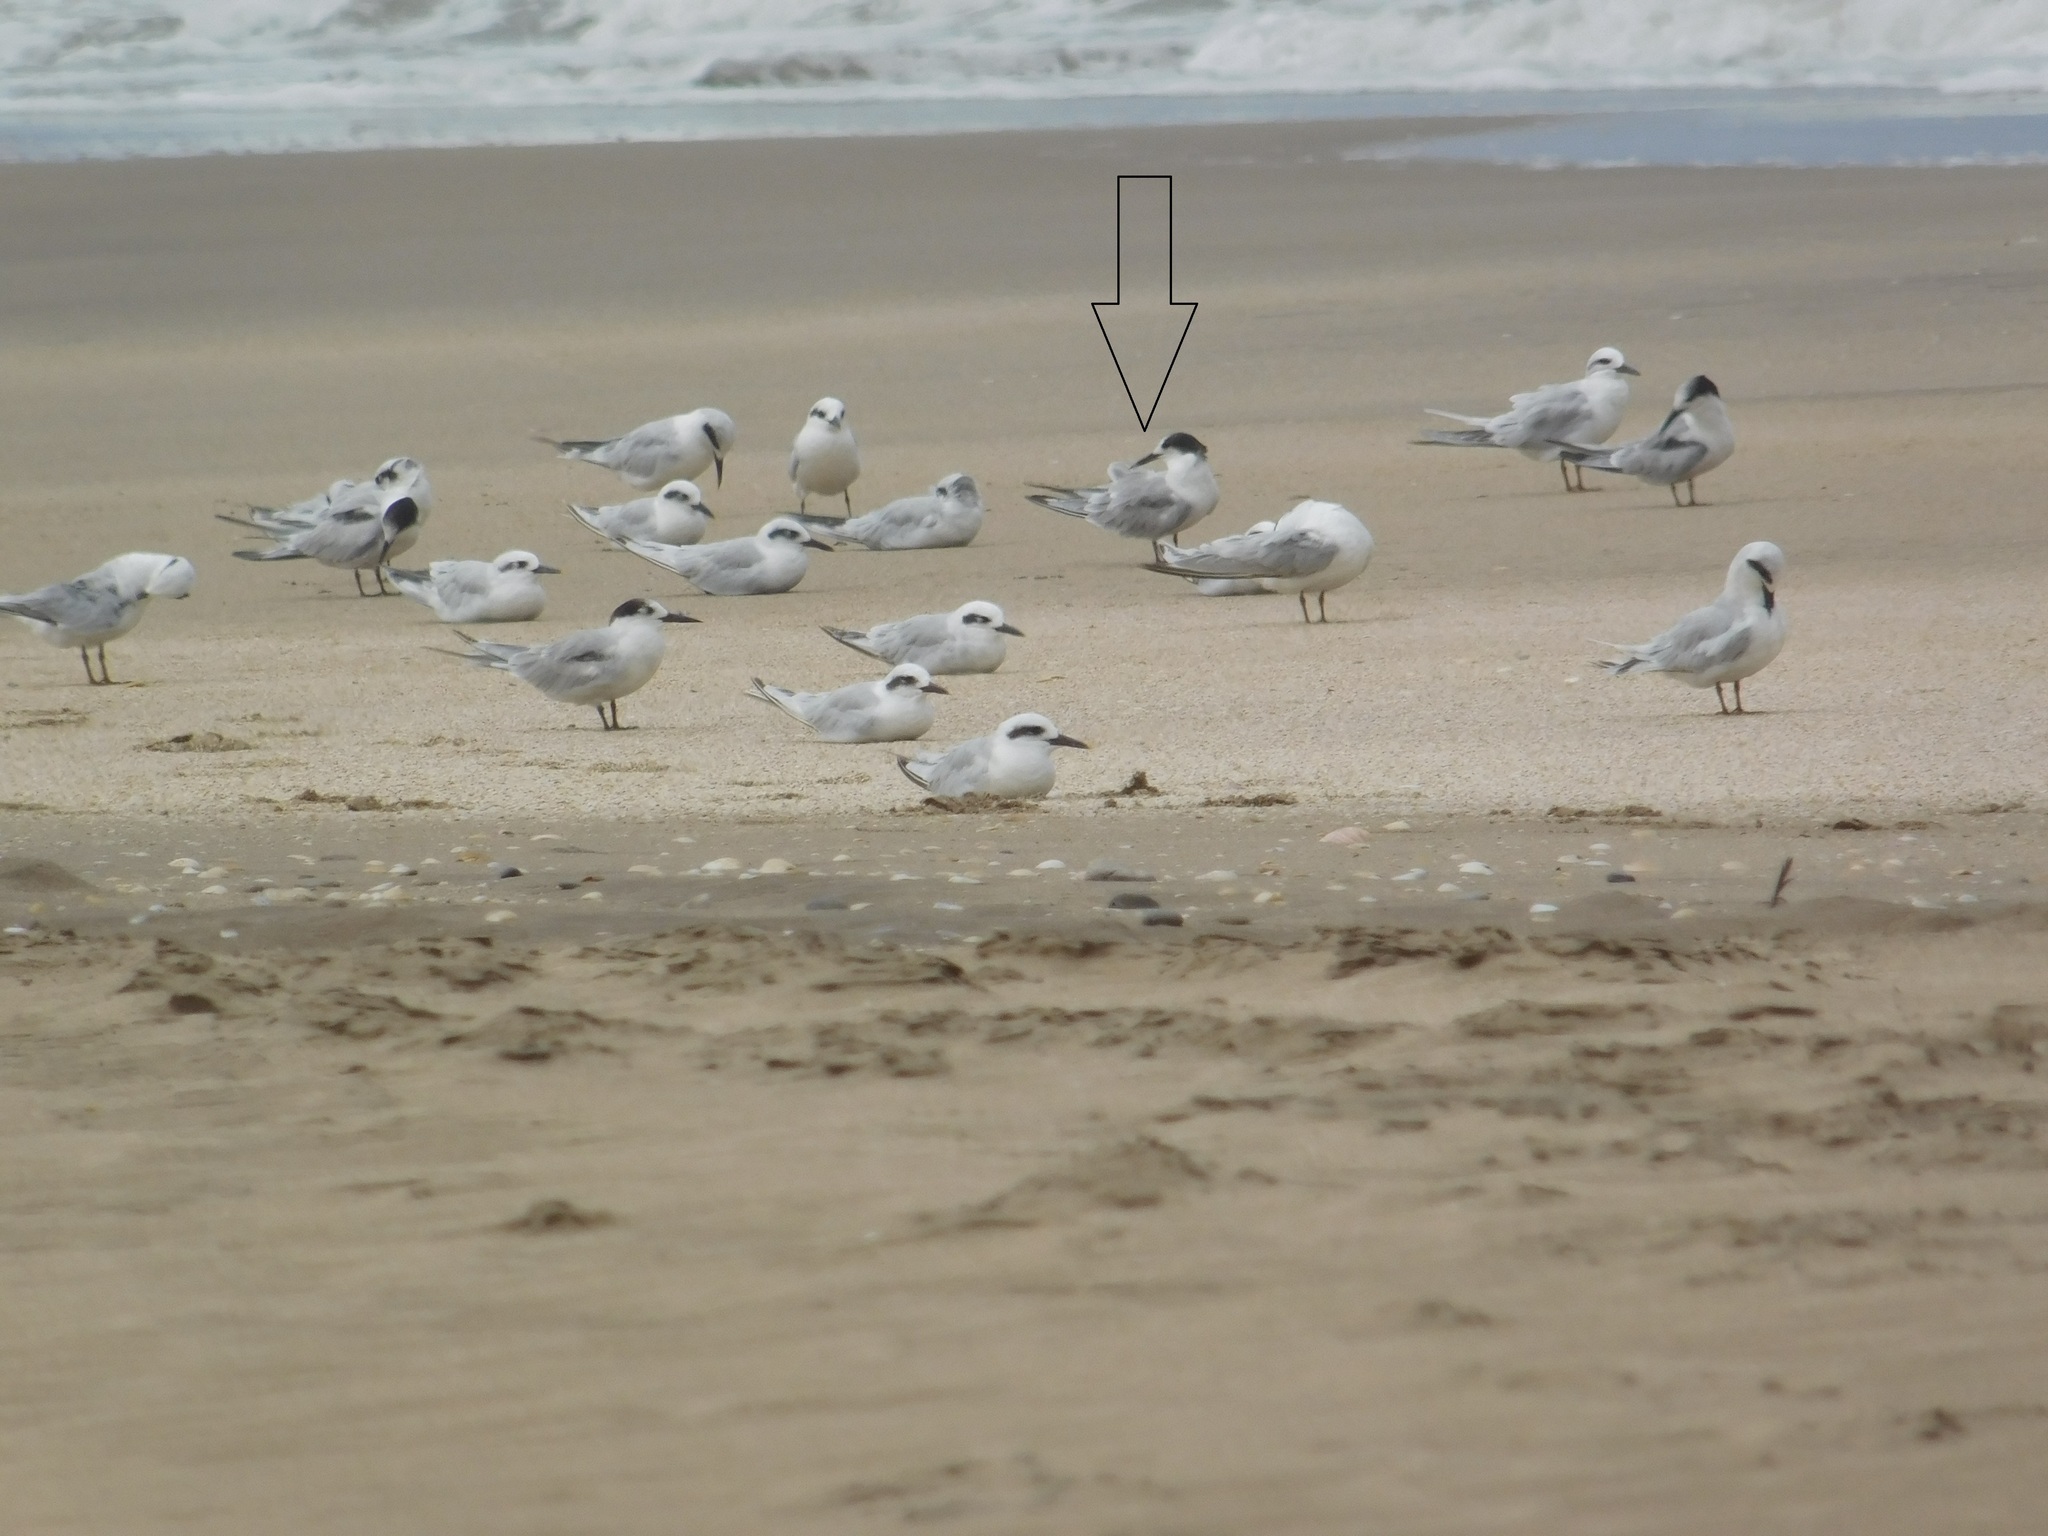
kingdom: Animalia
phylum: Chordata
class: Aves
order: Charadriiformes
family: Laridae
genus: Sterna
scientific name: Sterna hirundo
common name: Common tern
